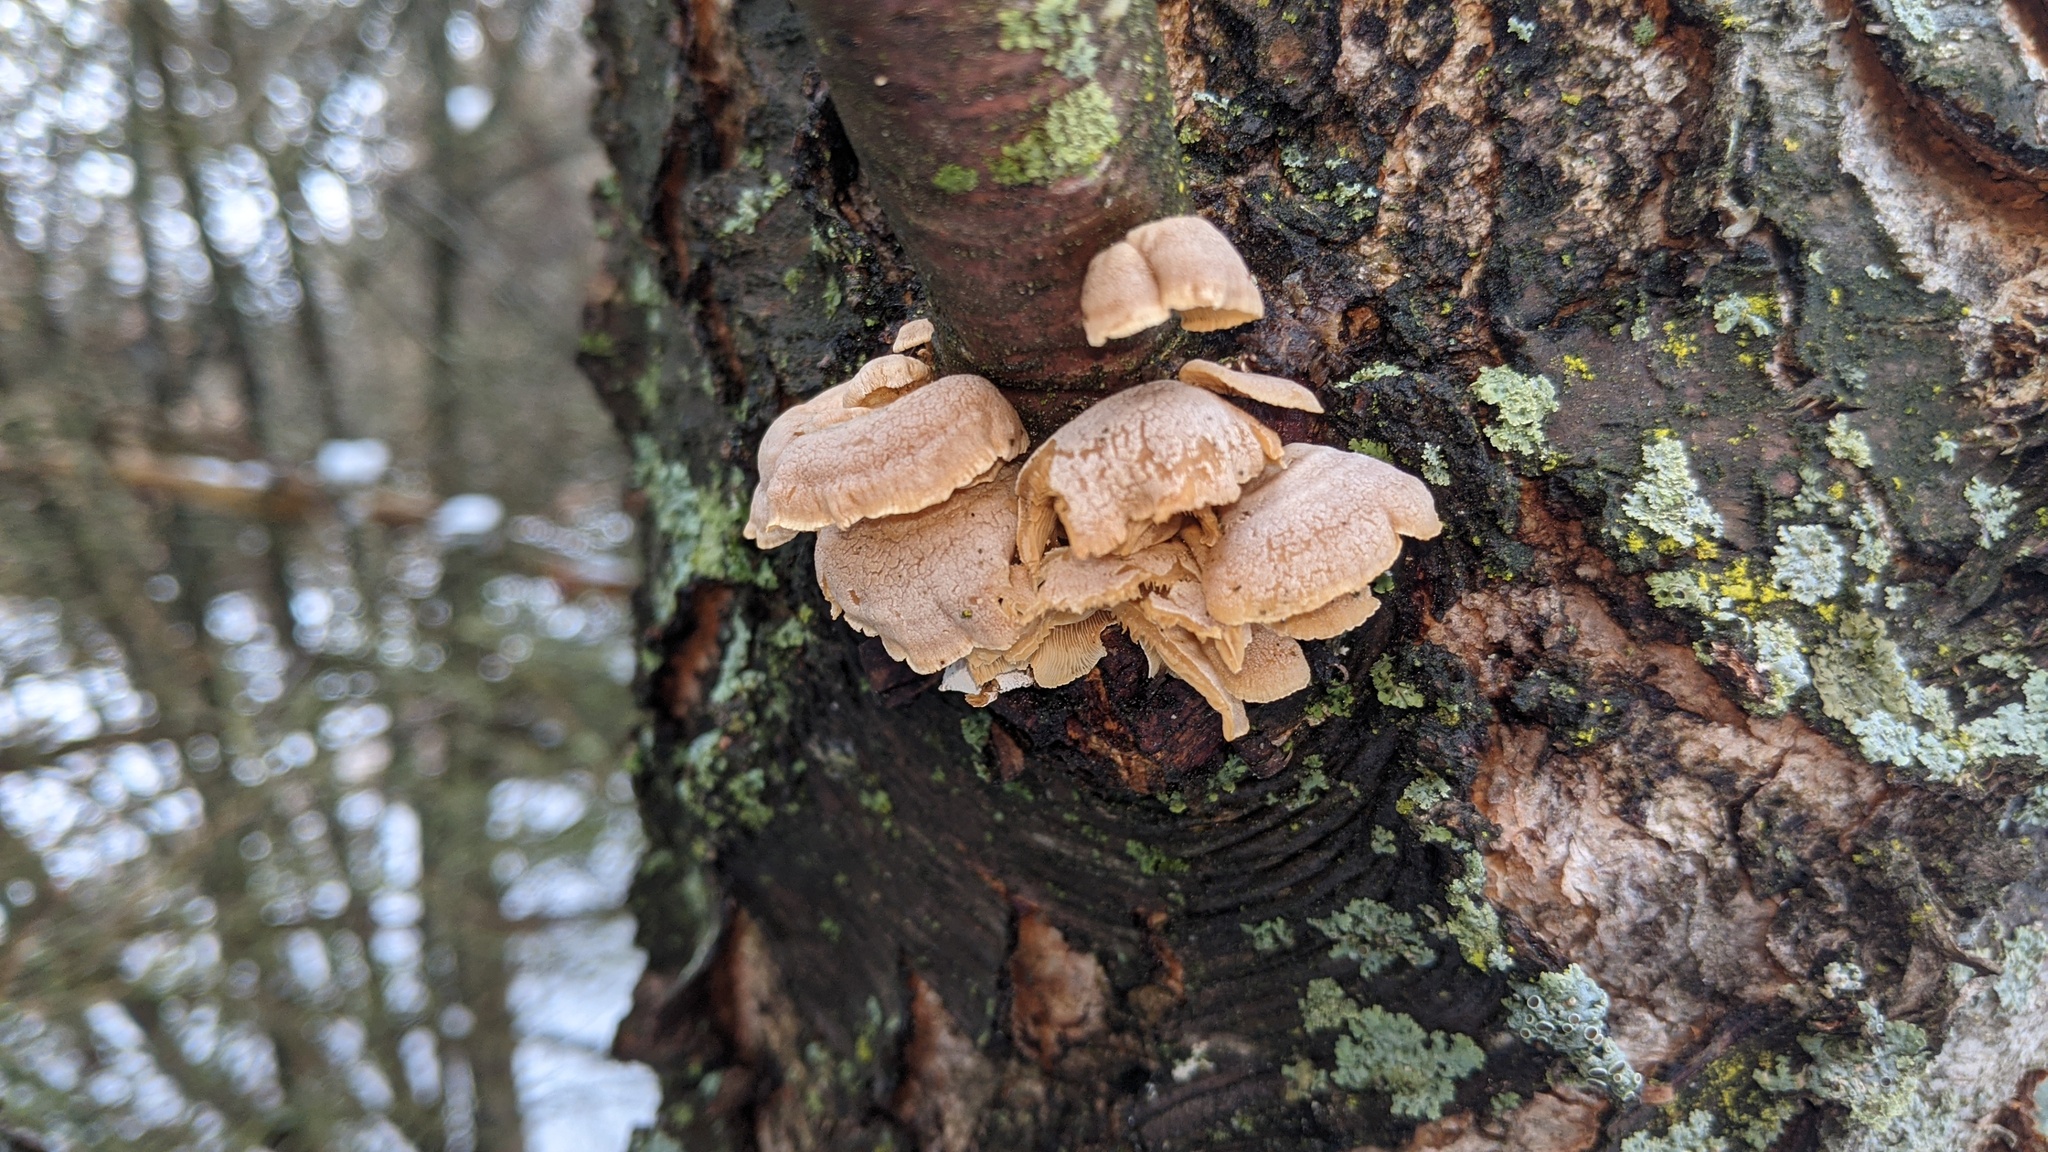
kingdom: Fungi
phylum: Basidiomycota
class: Agaricomycetes
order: Agaricales
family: Mycenaceae
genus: Panellus
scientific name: Panellus stipticus
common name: Bitter oysterling
